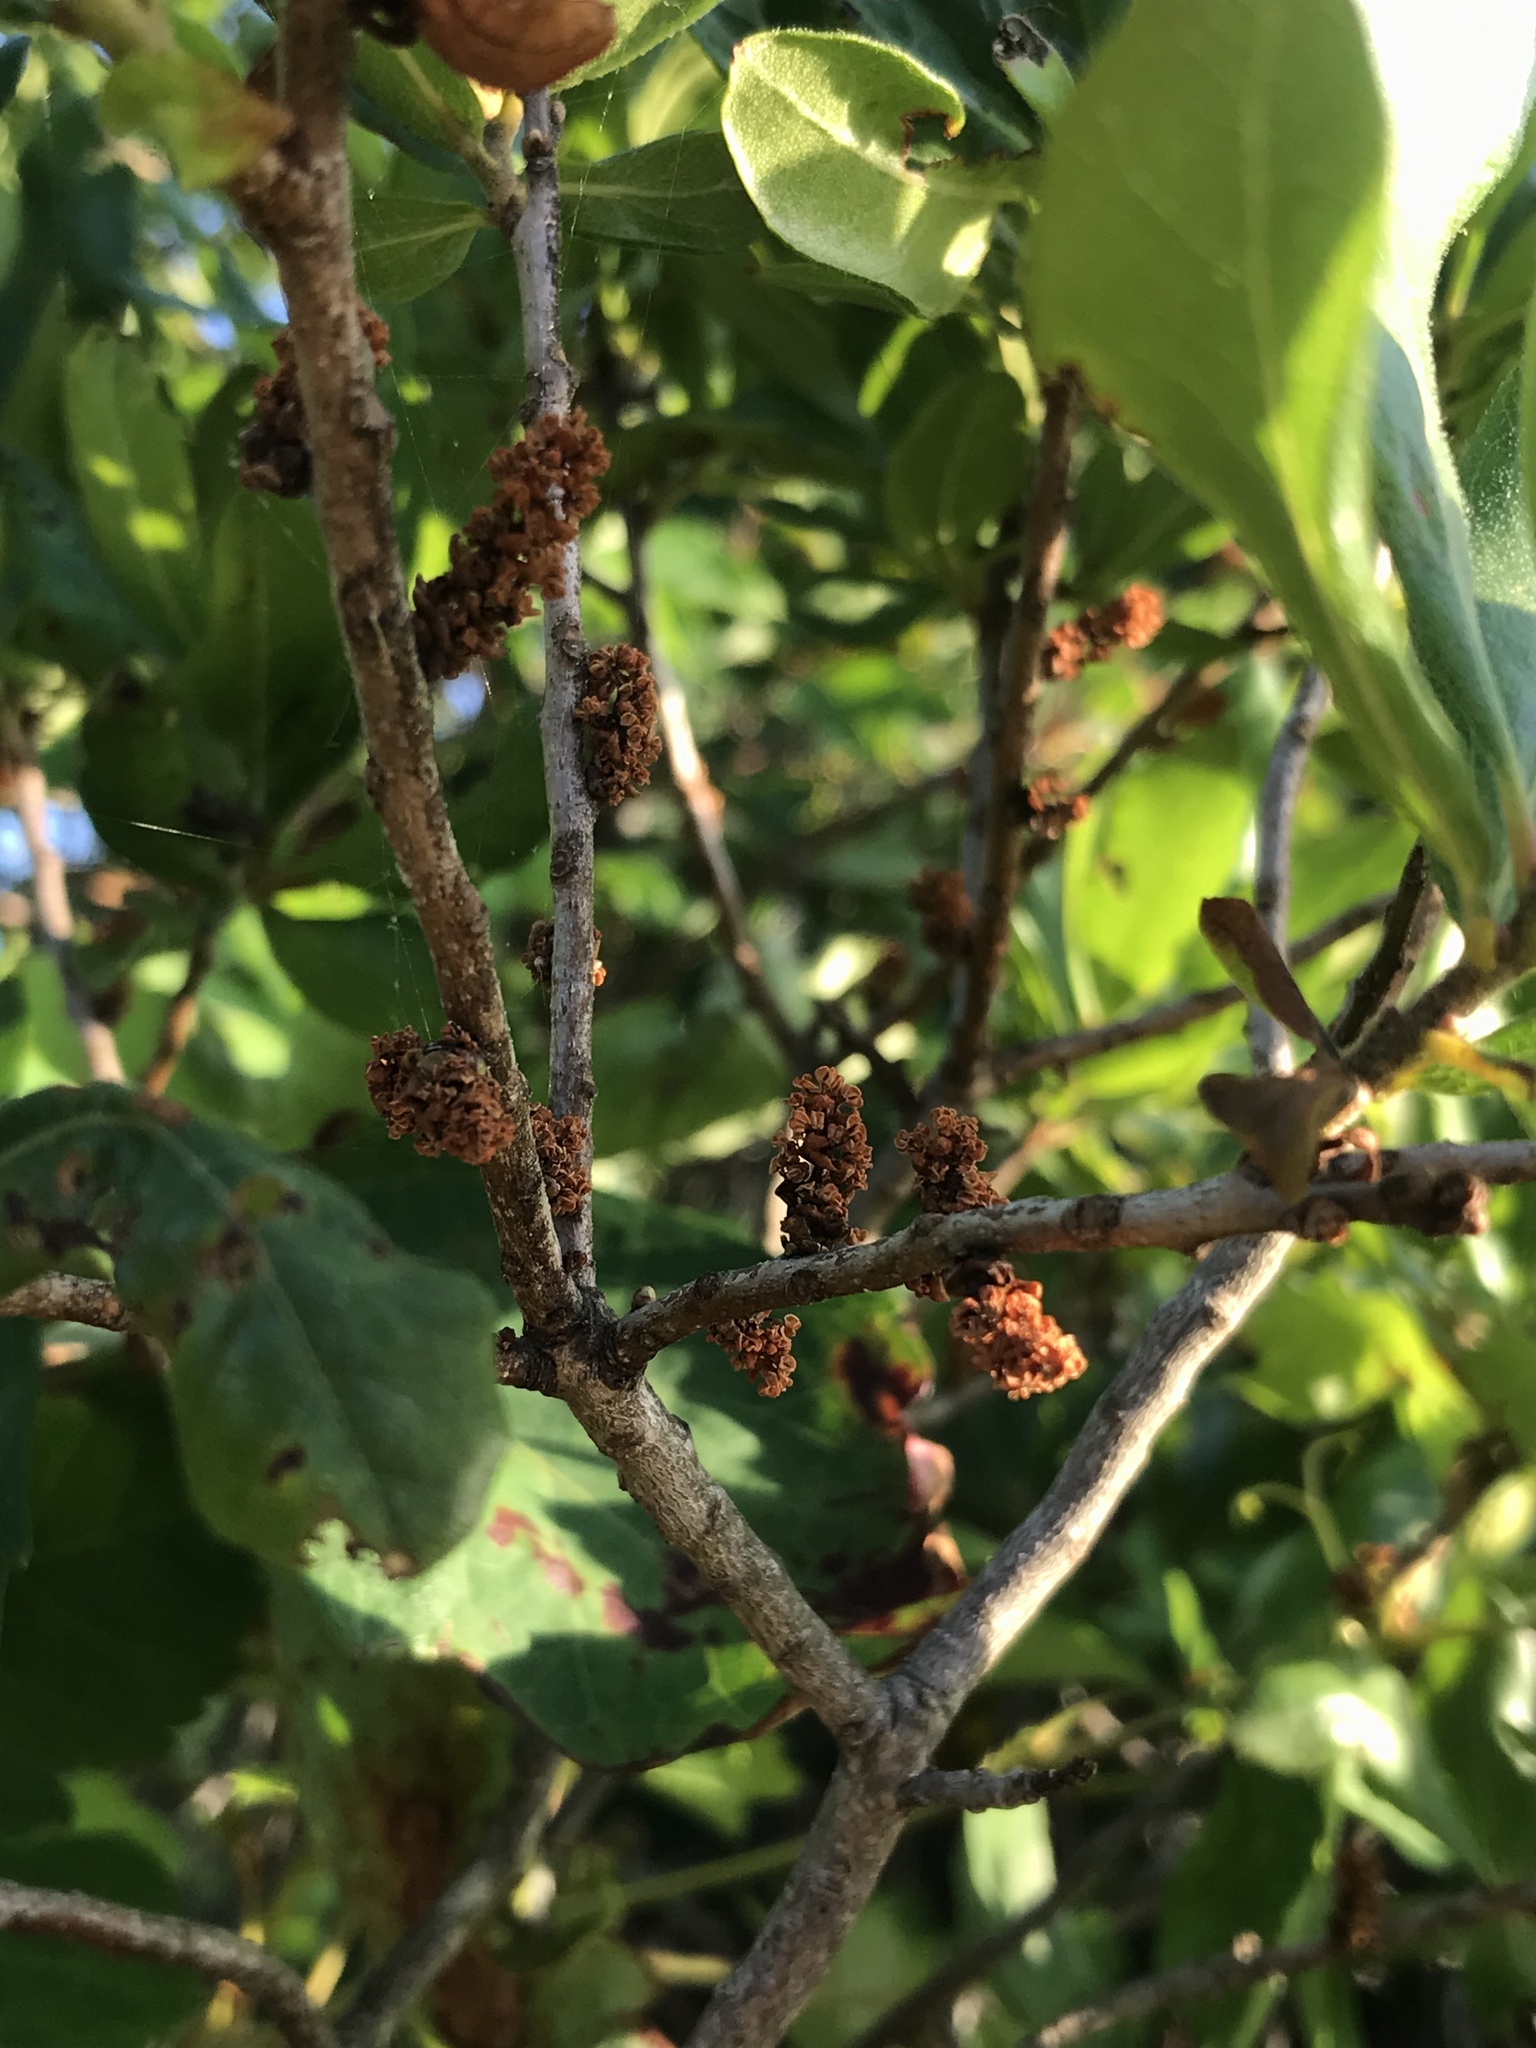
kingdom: Plantae
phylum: Tracheophyta
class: Magnoliopsida
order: Fagales
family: Myricaceae
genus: Morella
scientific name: Morella pensylvanica
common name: Northern bayberry
